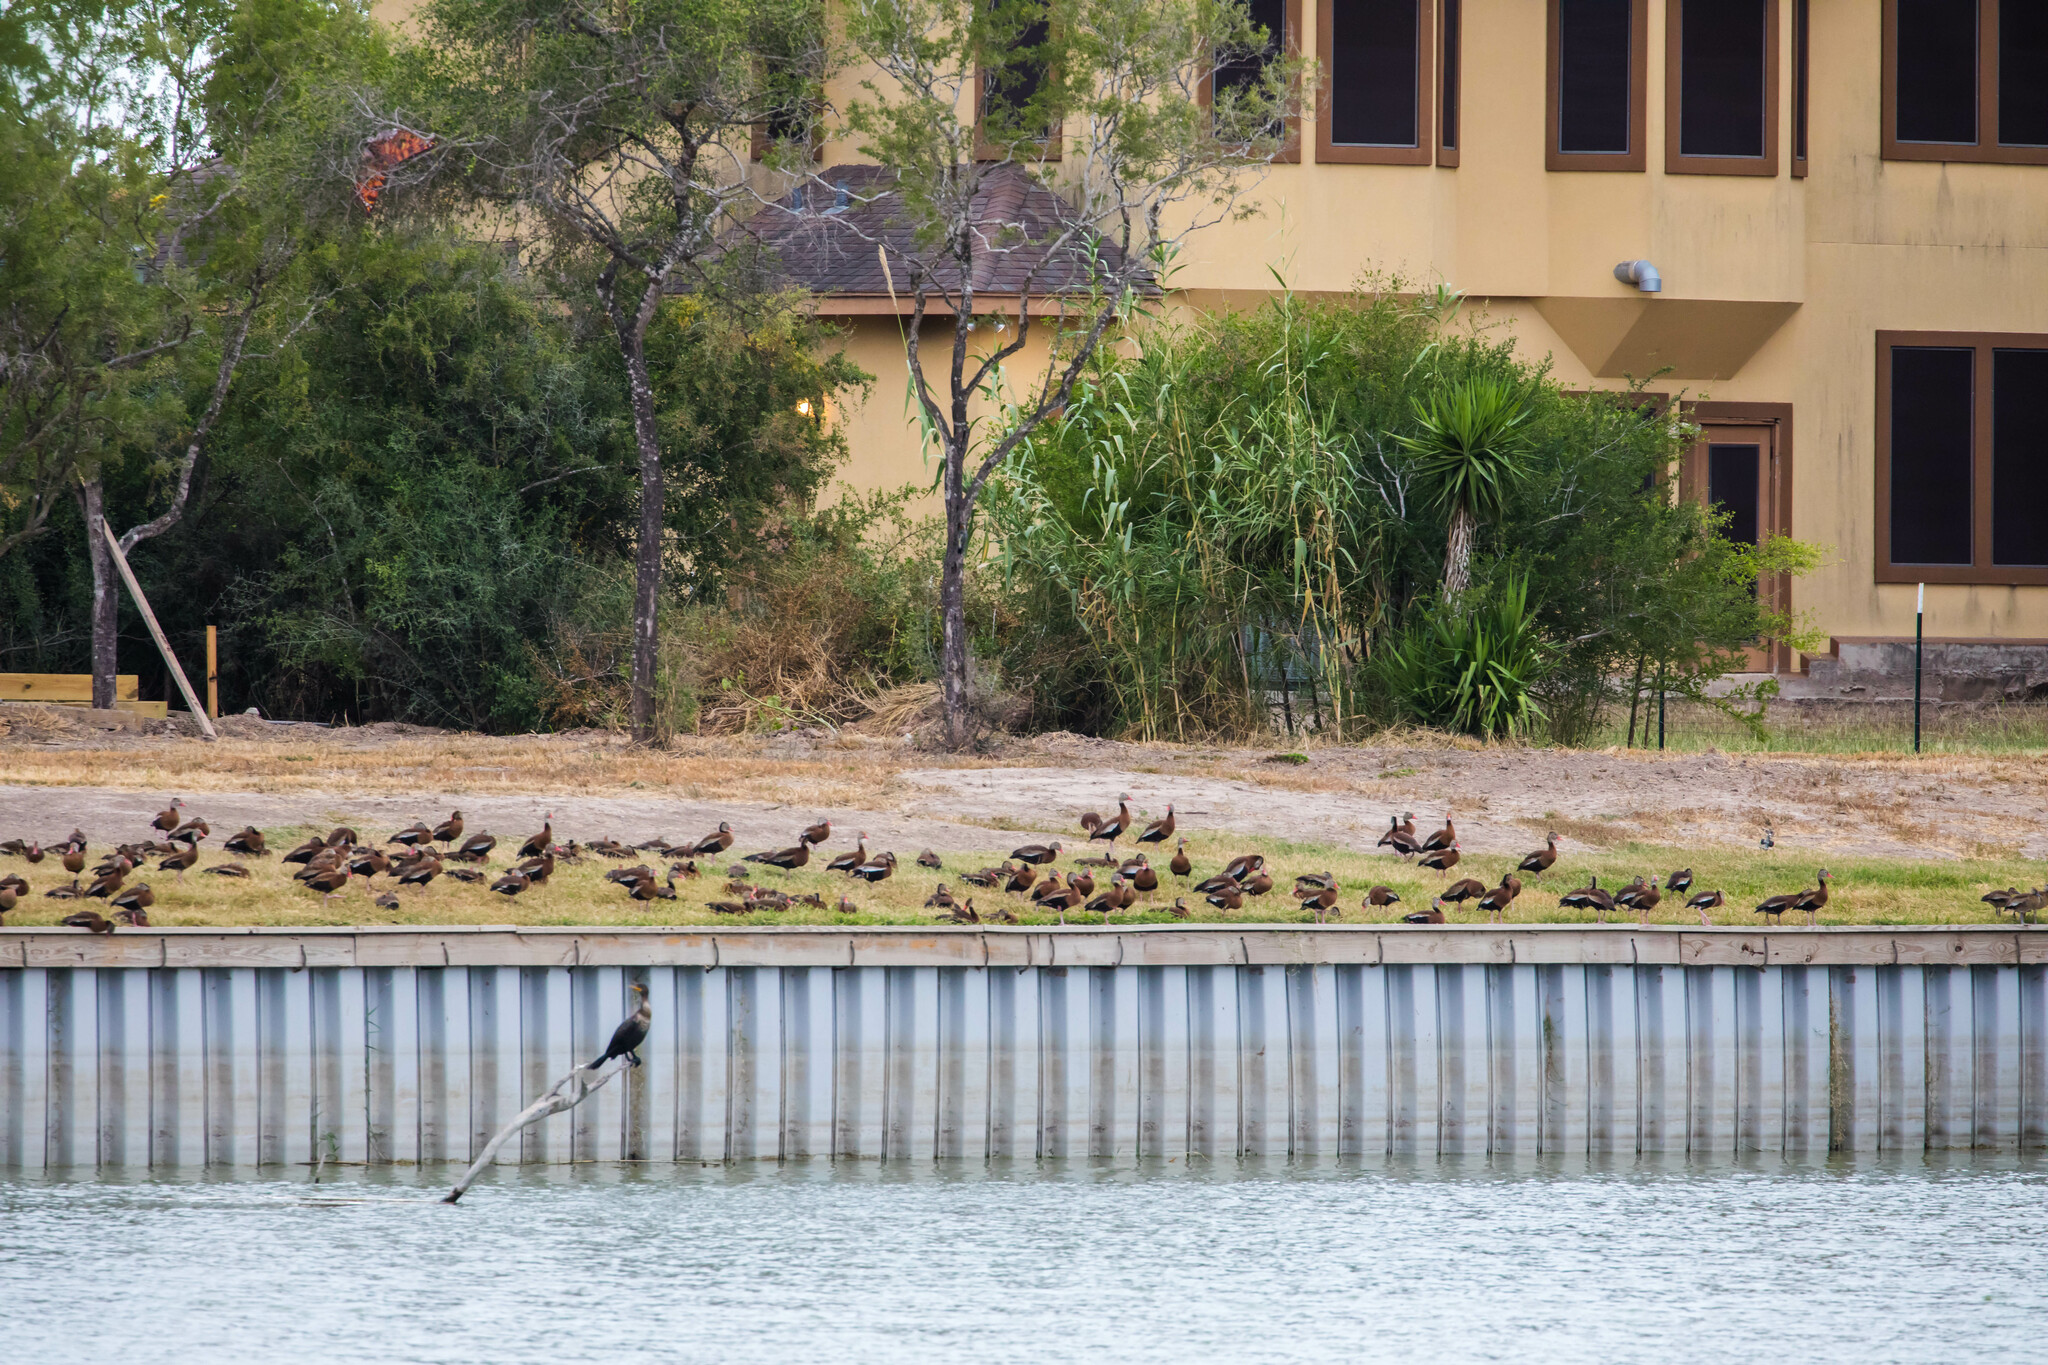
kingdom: Animalia
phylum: Chordata
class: Aves
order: Anseriformes
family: Anatidae
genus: Dendrocygna
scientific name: Dendrocygna autumnalis
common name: Black-bellied whistling duck
